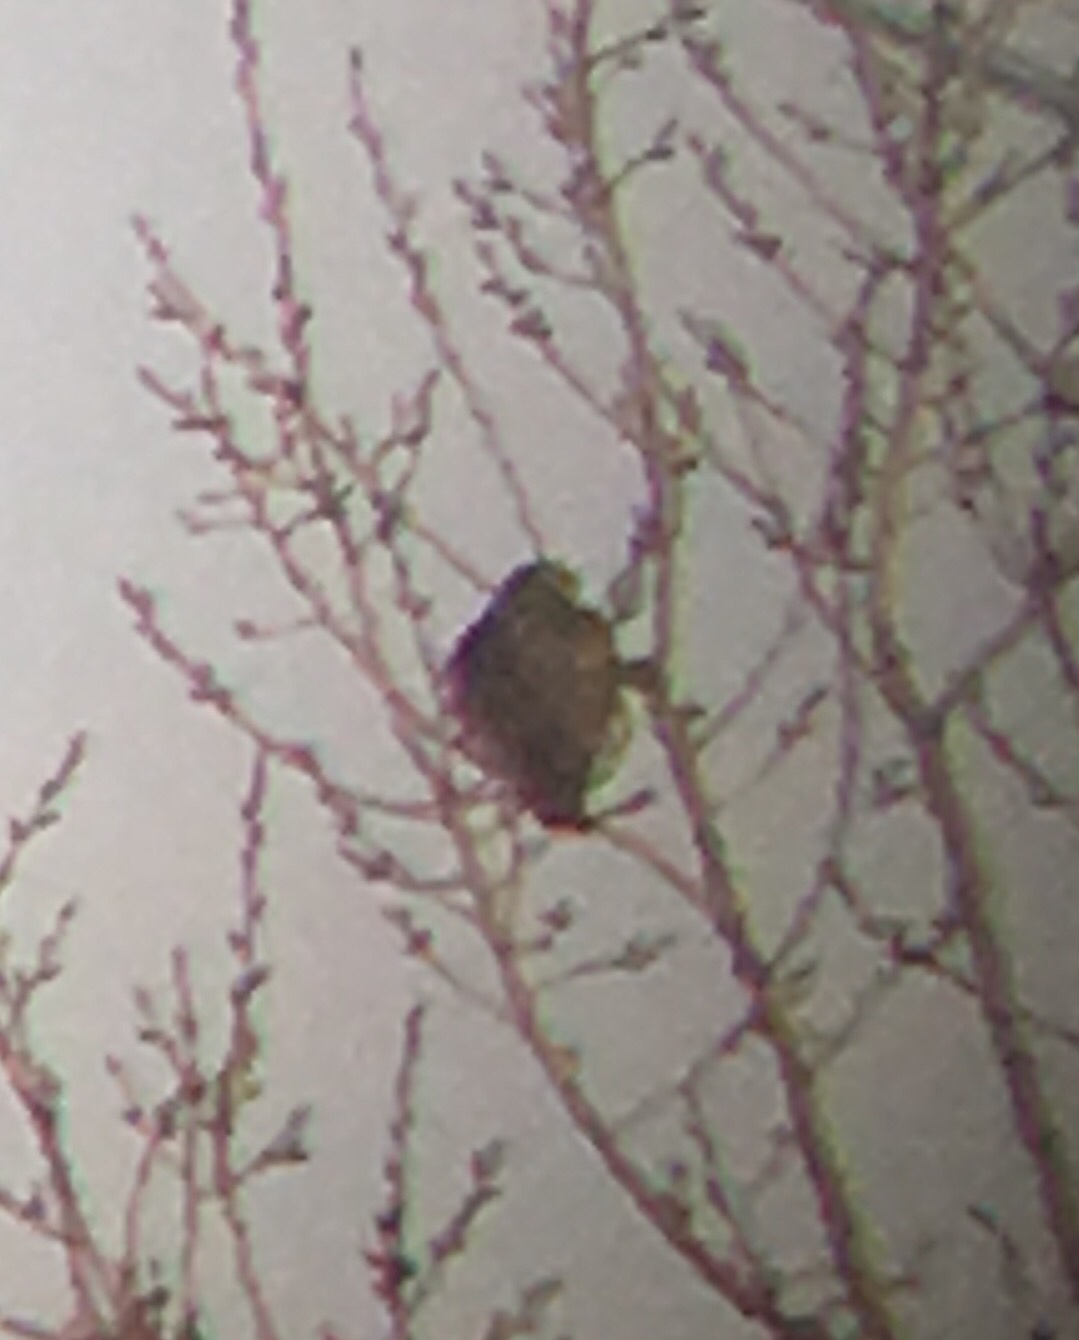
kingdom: Animalia
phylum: Chordata
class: Aves
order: Falconiformes
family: Falconidae
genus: Falco
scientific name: Falco columbarius
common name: Merlin
